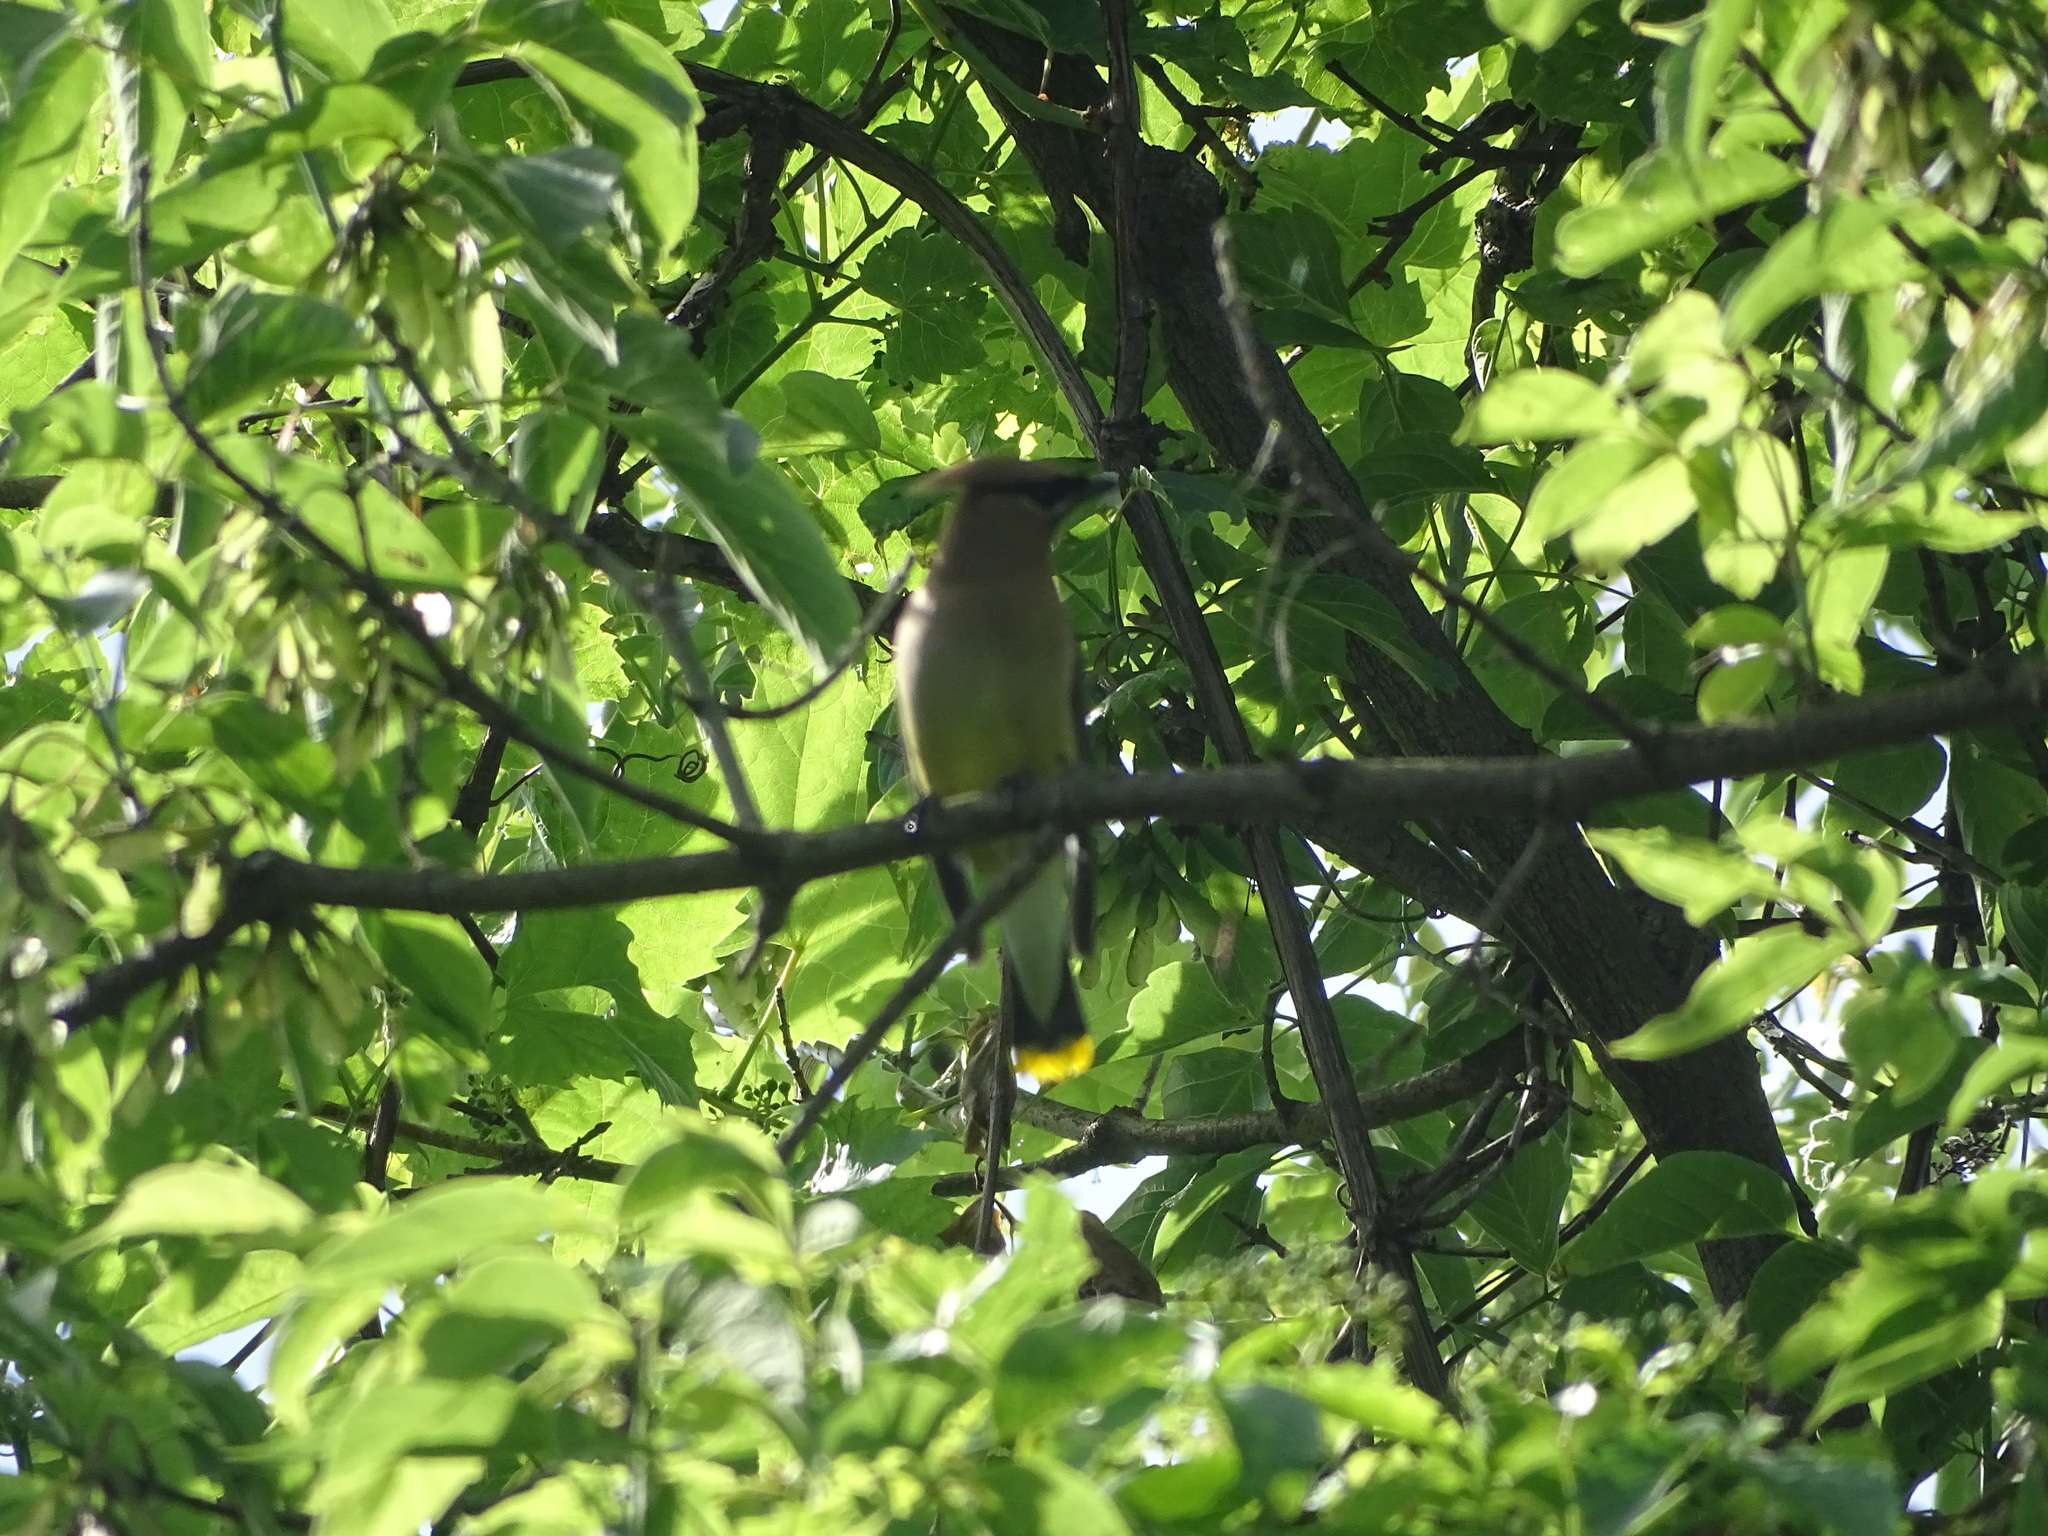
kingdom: Animalia
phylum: Chordata
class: Aves
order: Passeriformes
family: Bombycillidae
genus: Bombycilla
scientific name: Bombycilla cedrorum
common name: Cedar waxwing
